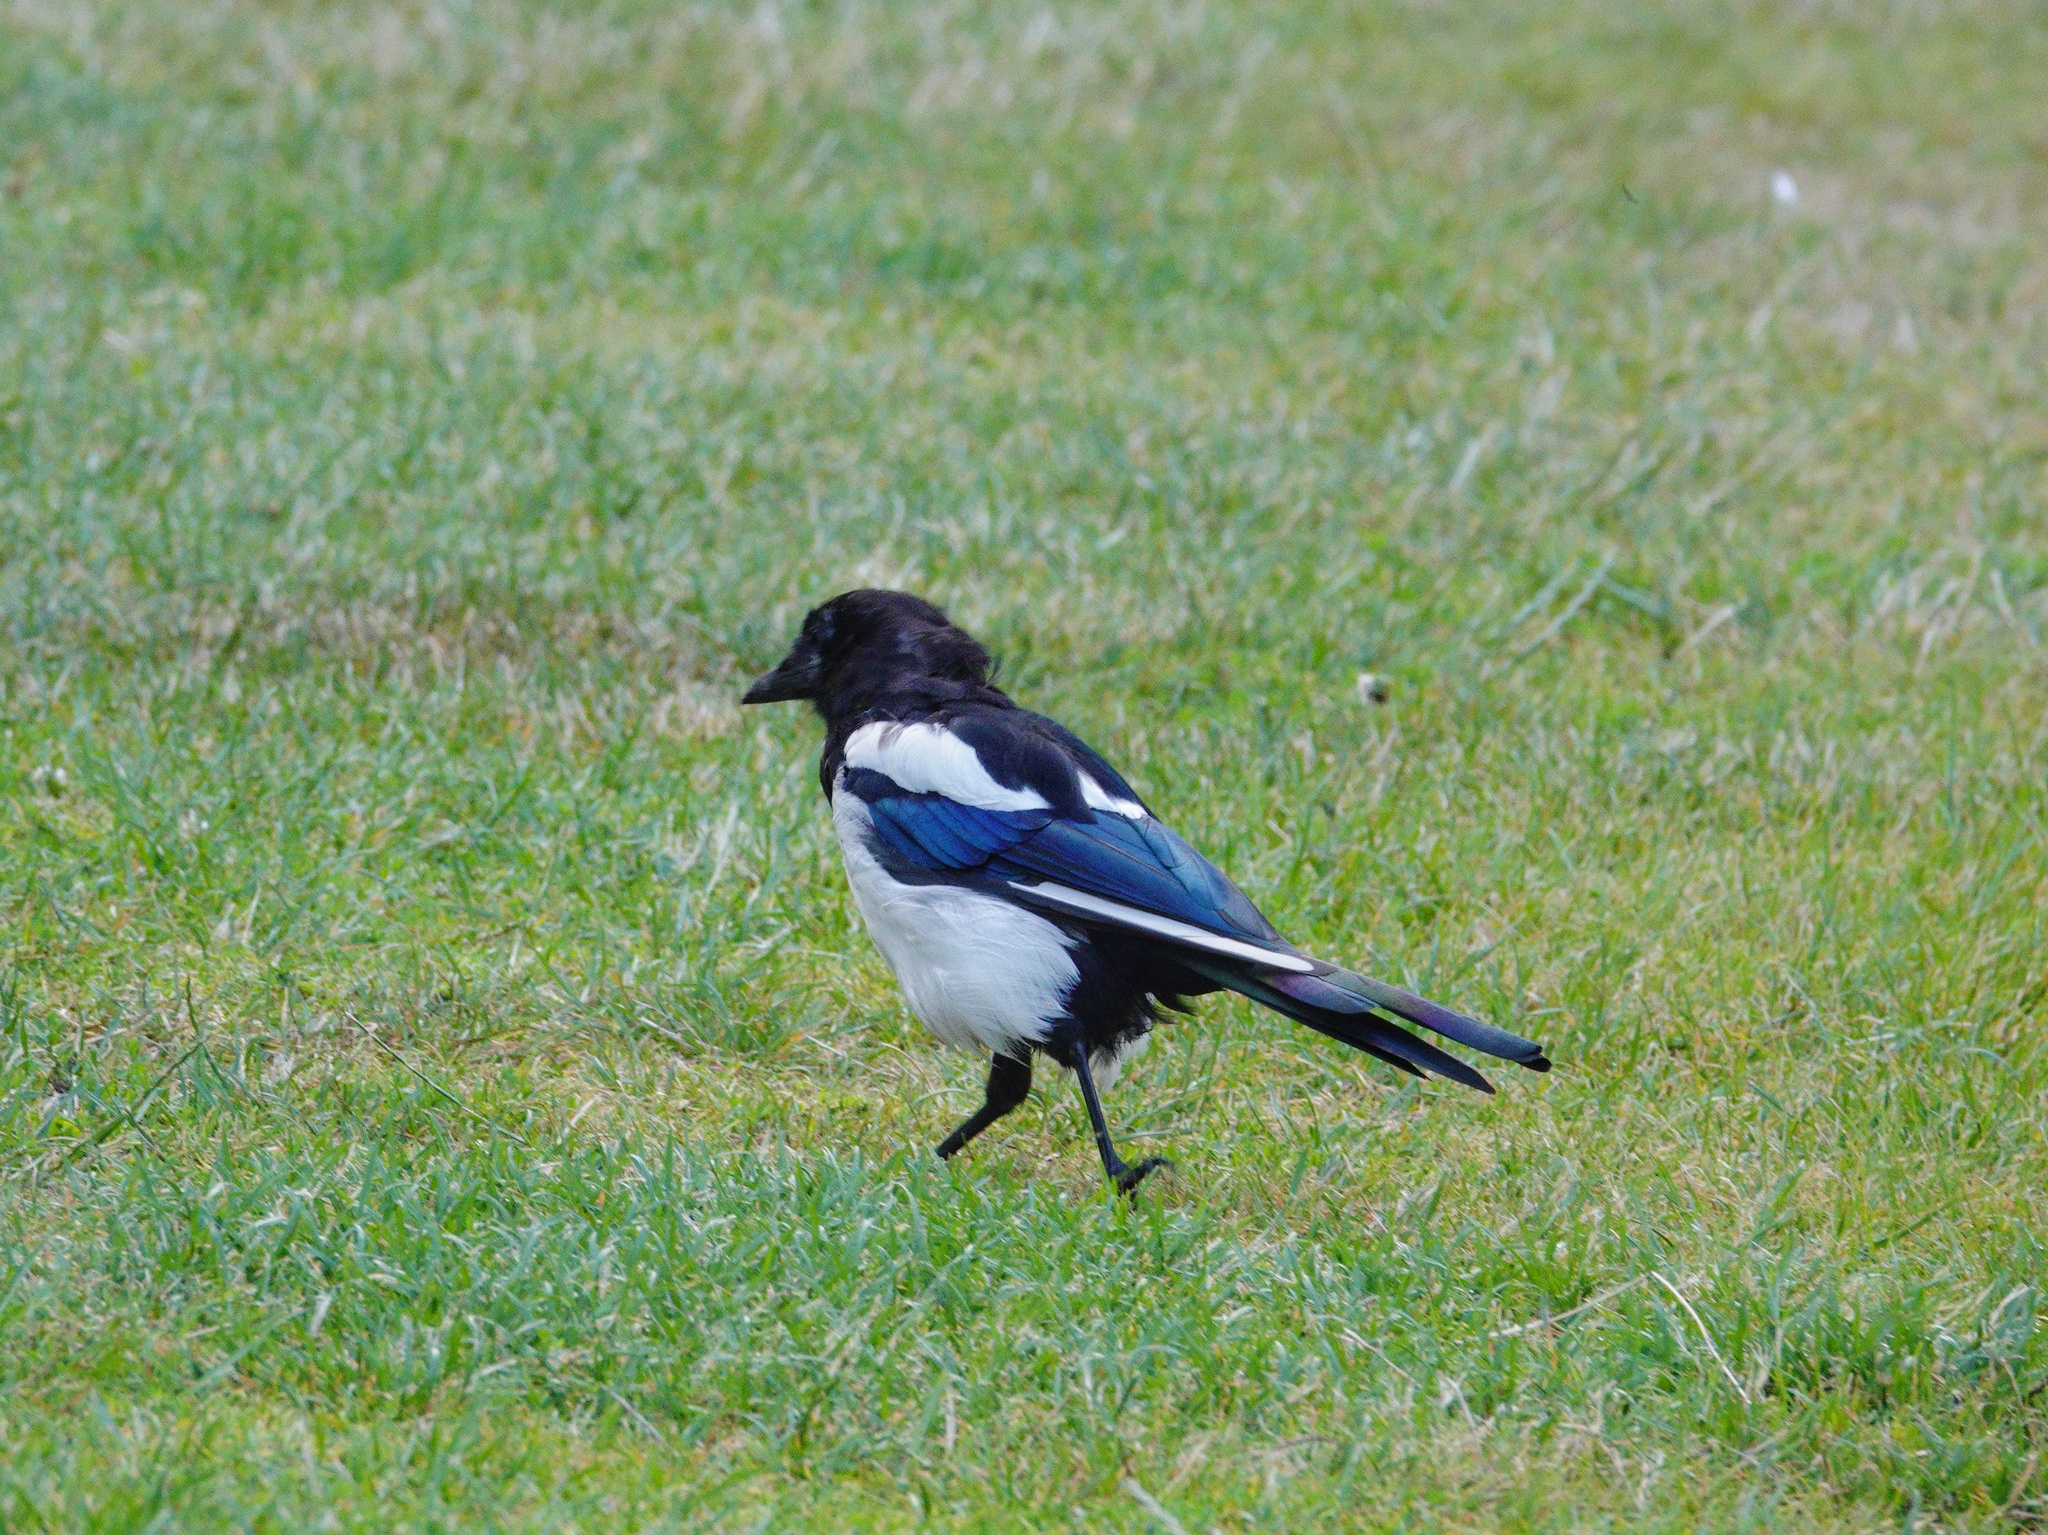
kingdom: Animalia
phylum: Chordata
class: Aves
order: Passeriformes
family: Corvidae
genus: Pica
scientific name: Pica pica
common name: Eurasian magpie
